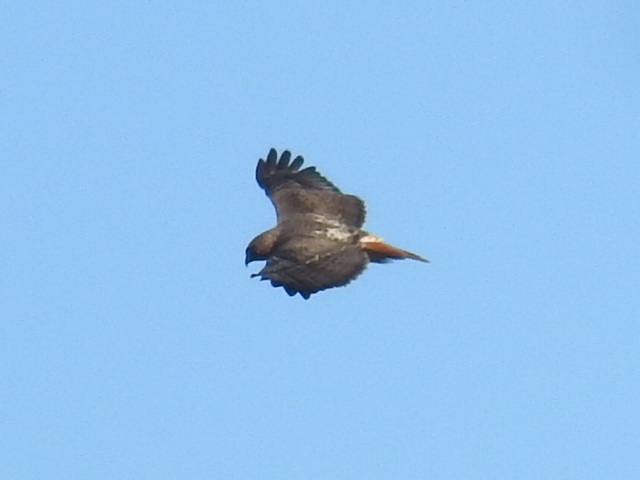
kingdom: Animalia
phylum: Chordata
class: Aves
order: Accipitriformes
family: Accipitridae
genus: Buteo
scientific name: Buteo jamaicensis
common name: Red-tailed hawk
